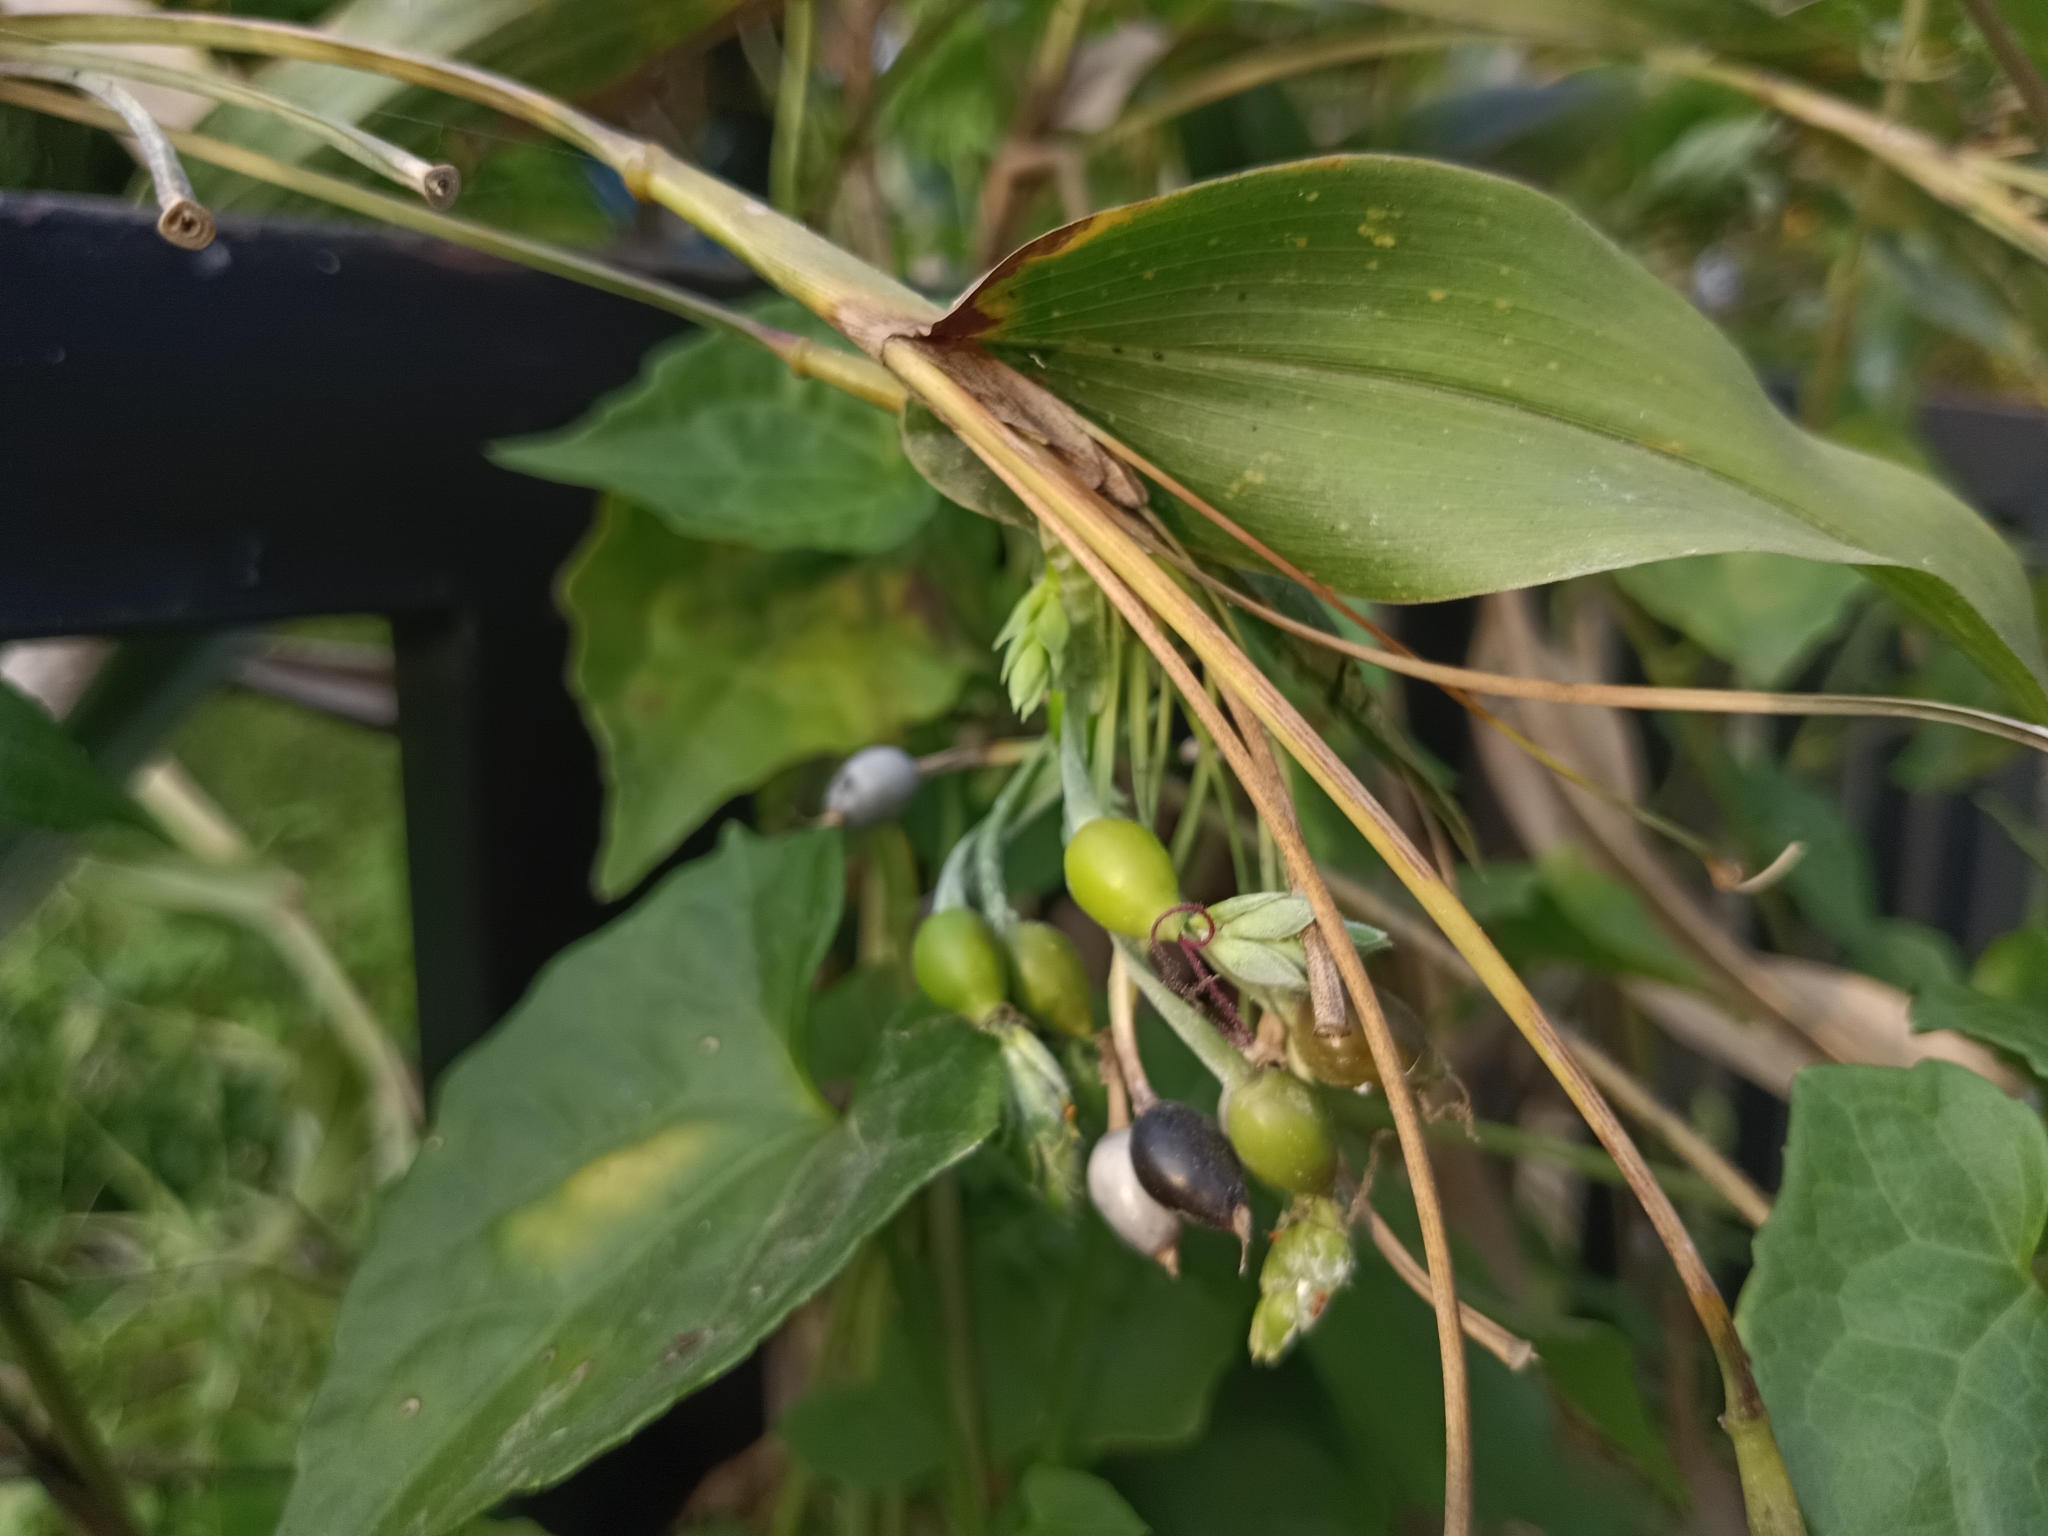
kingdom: Plantae
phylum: Tracheophyta
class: Liliopsida
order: Poales
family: Poaceae
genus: Coix
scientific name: Coix lacryma-jobi
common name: Job's tears
